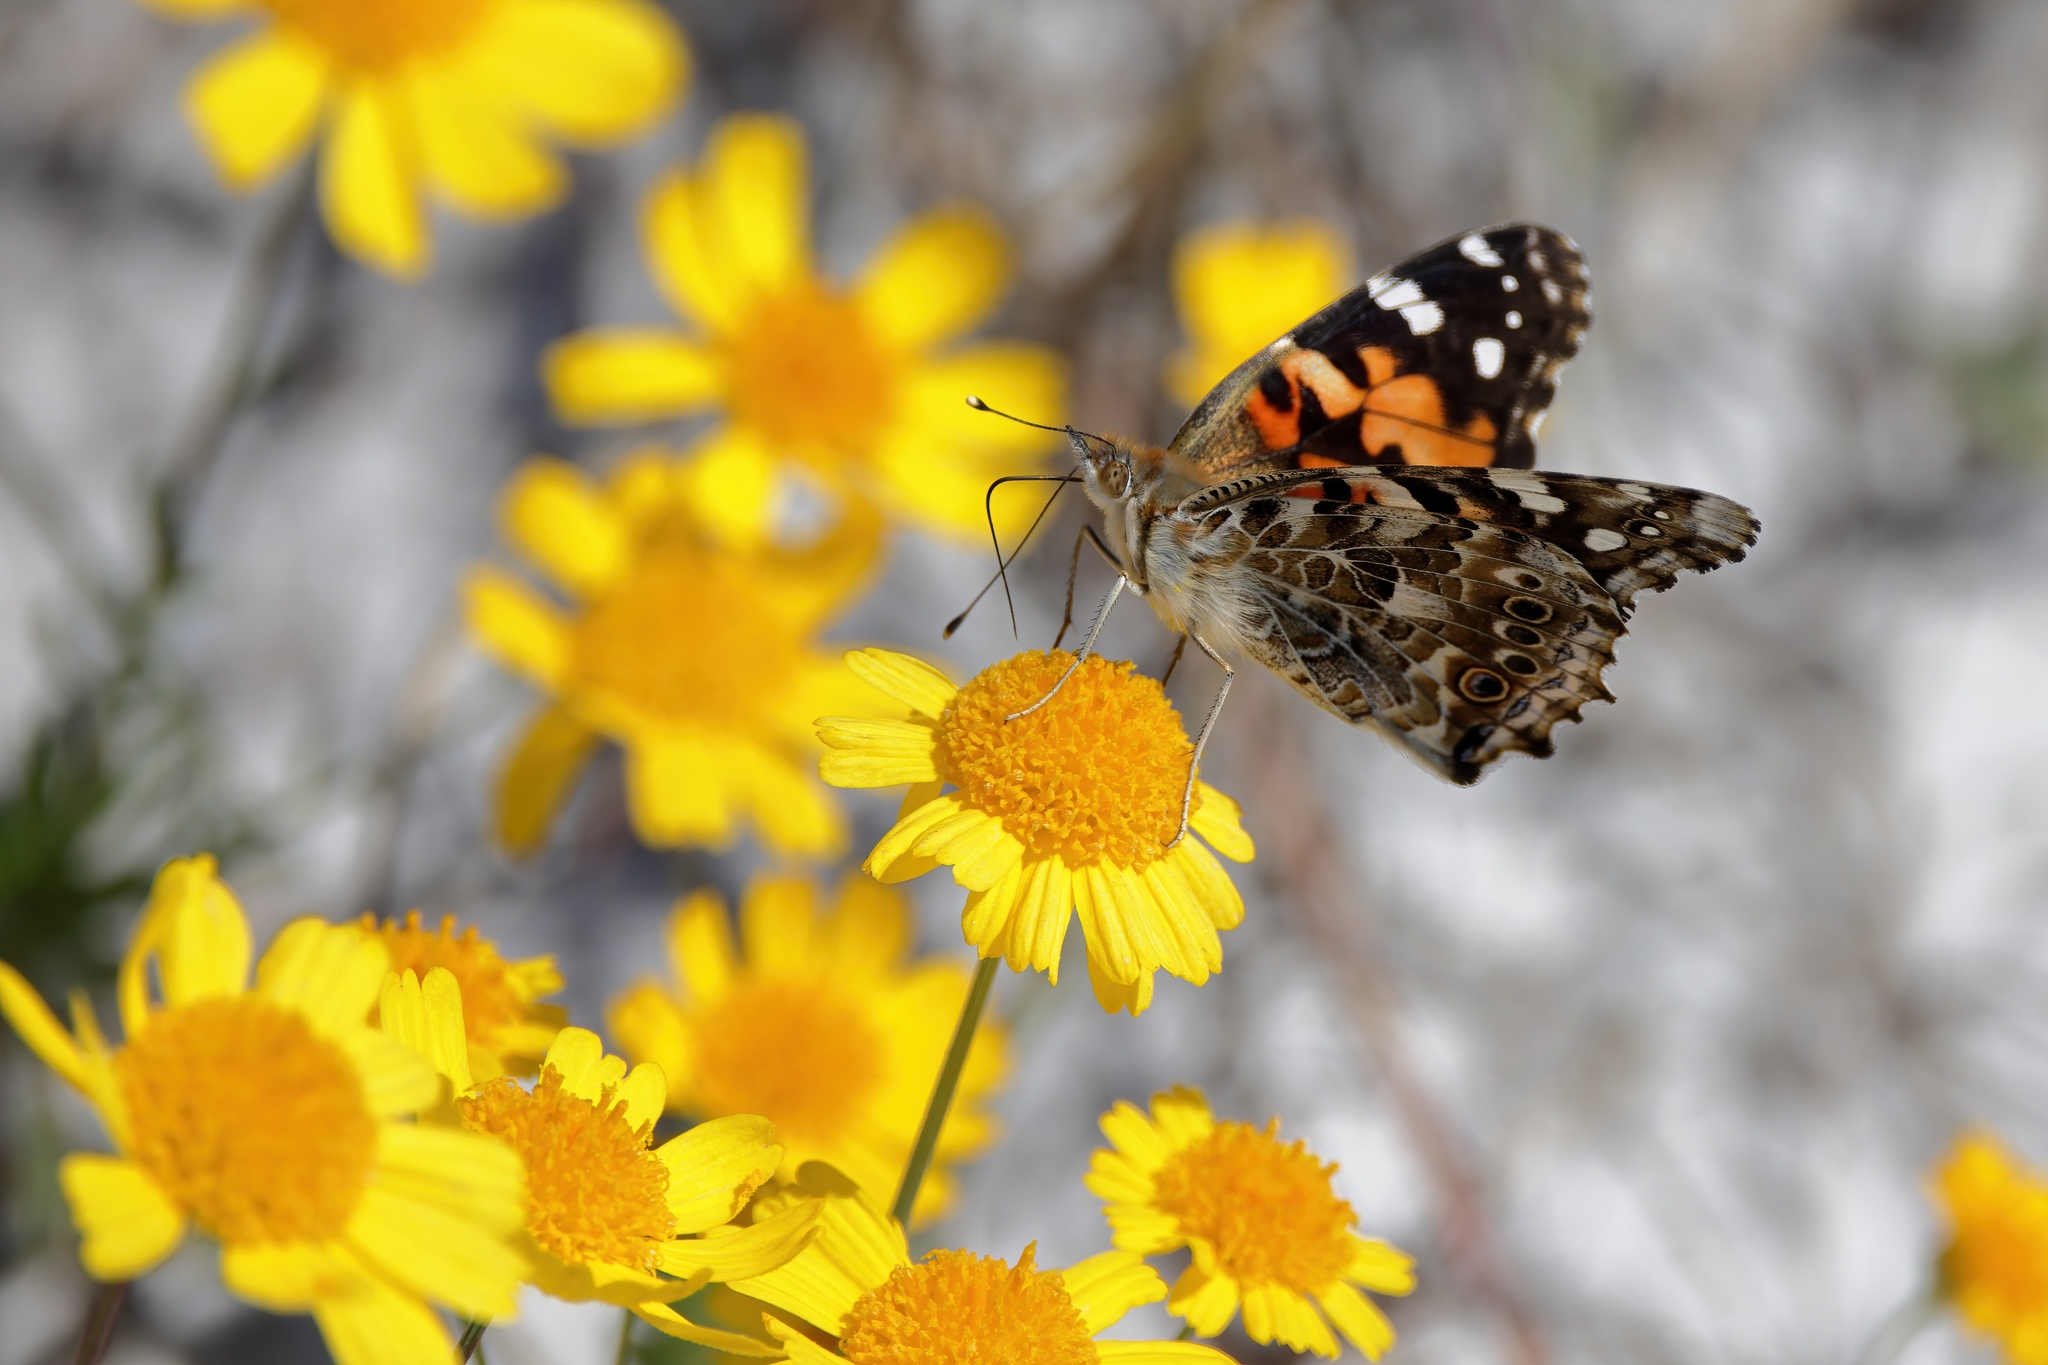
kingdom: Animalia
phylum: Arthropoda
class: Insecta
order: Lepidoptera
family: Nymphalidae
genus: Vanessa
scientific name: Vanessa cardui
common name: Painted lady
